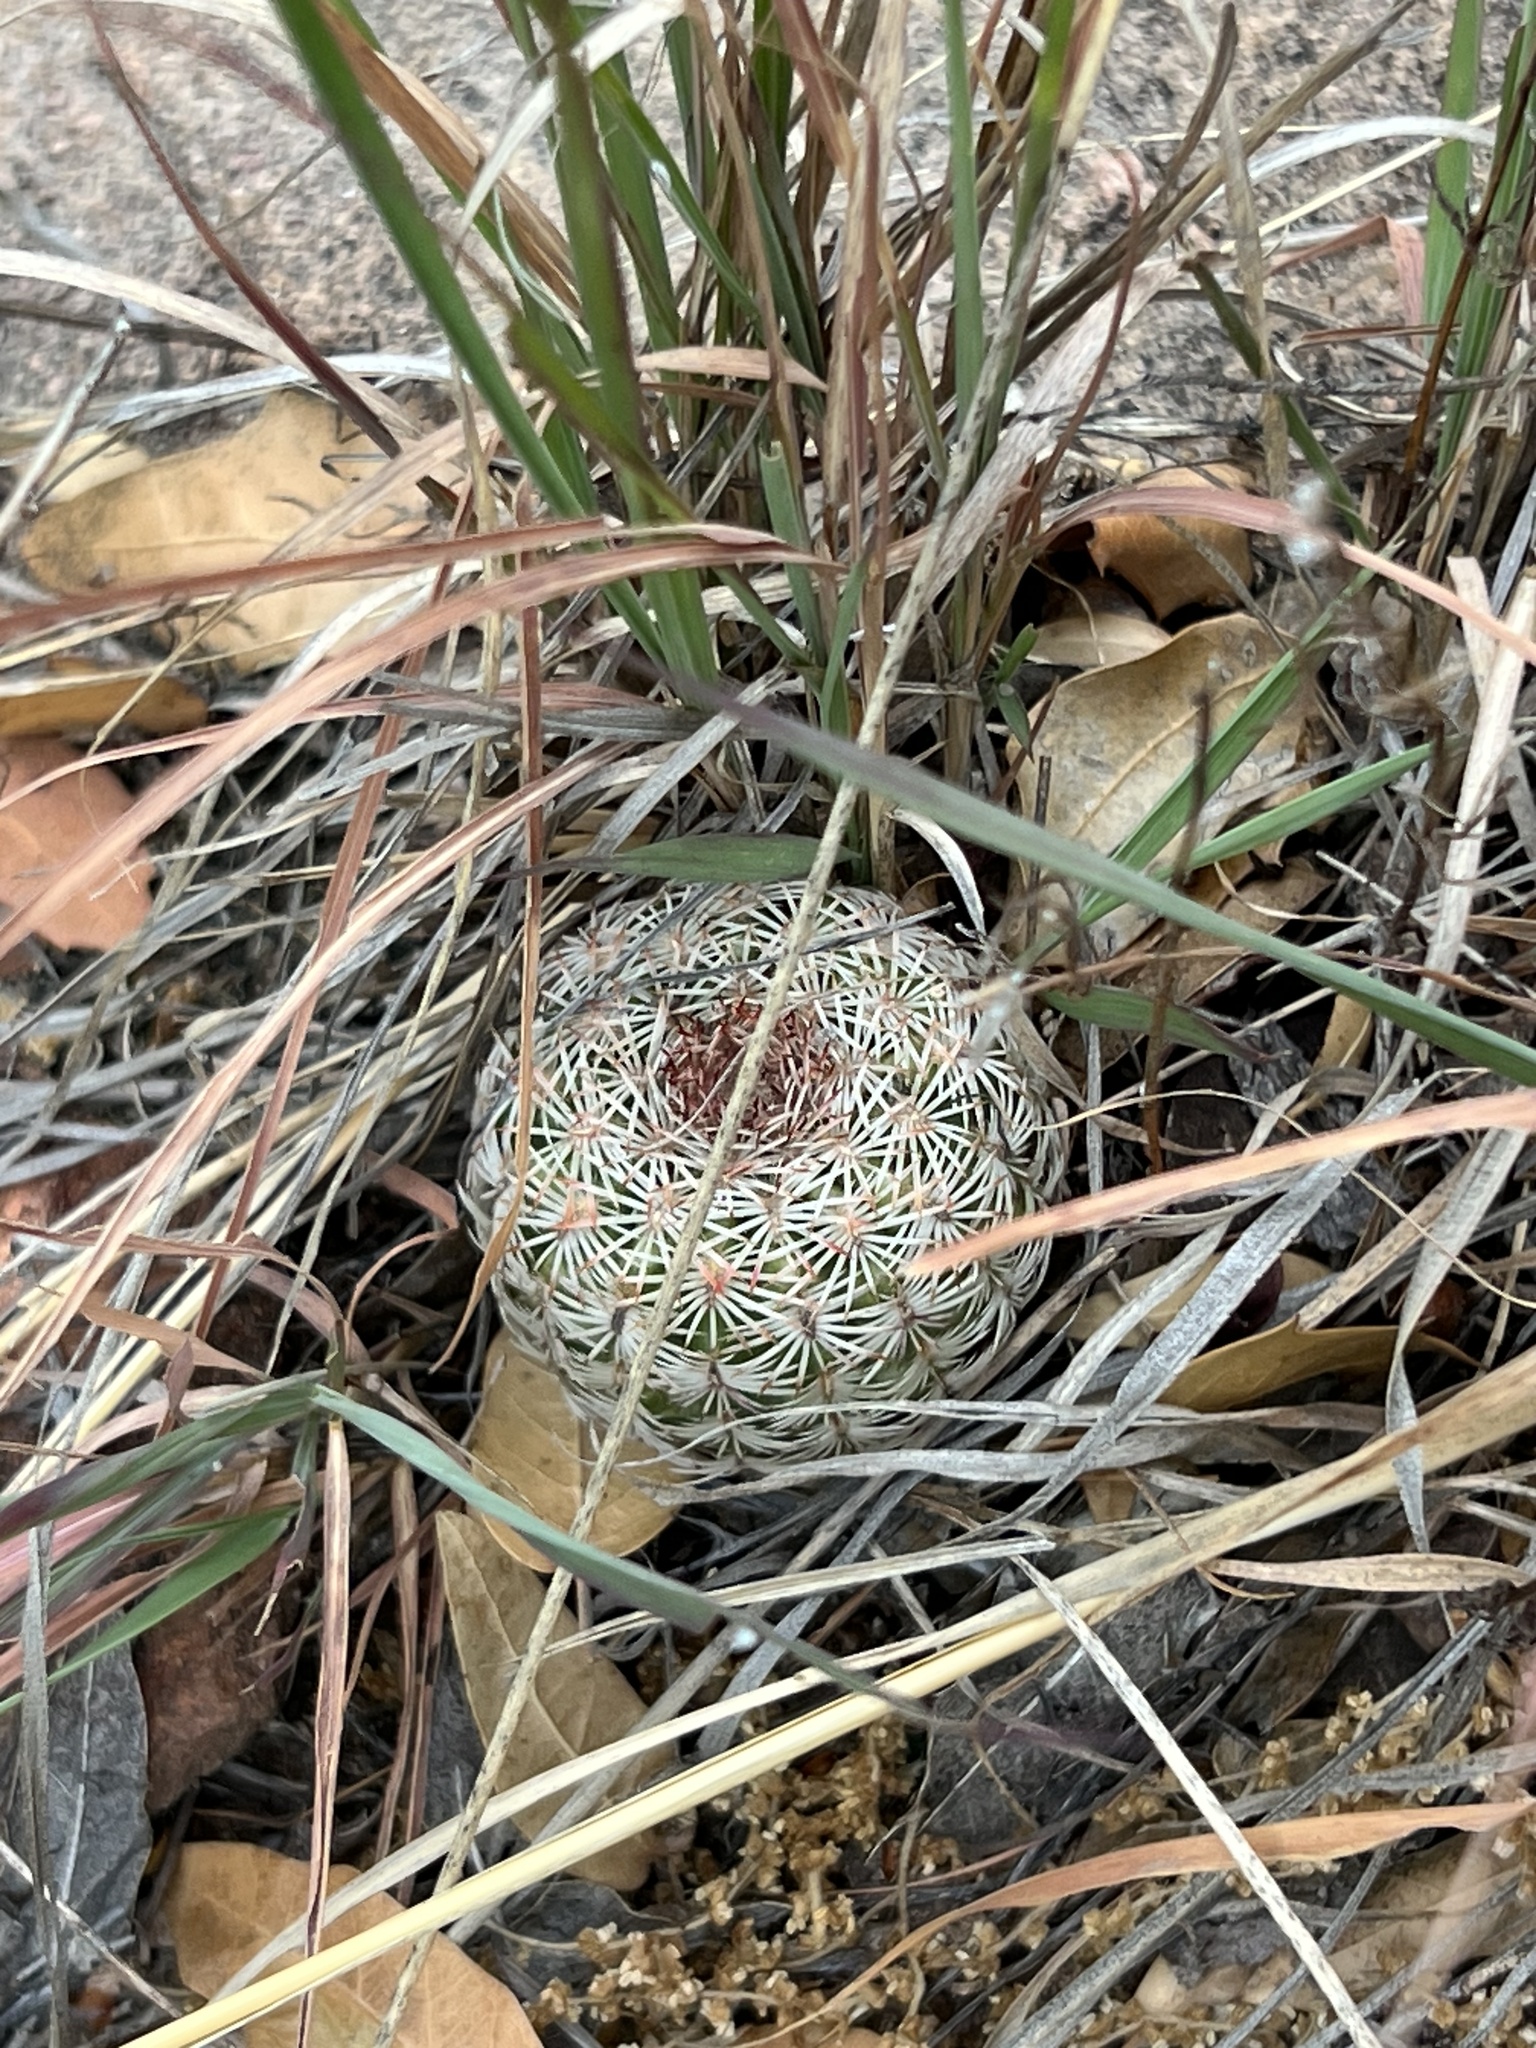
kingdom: Plantae
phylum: Tracheophyta
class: Magnoliopsida
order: Caryophyllales
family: Cactaceae
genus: Echinocereus
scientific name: Echinocereus rigidissimus
